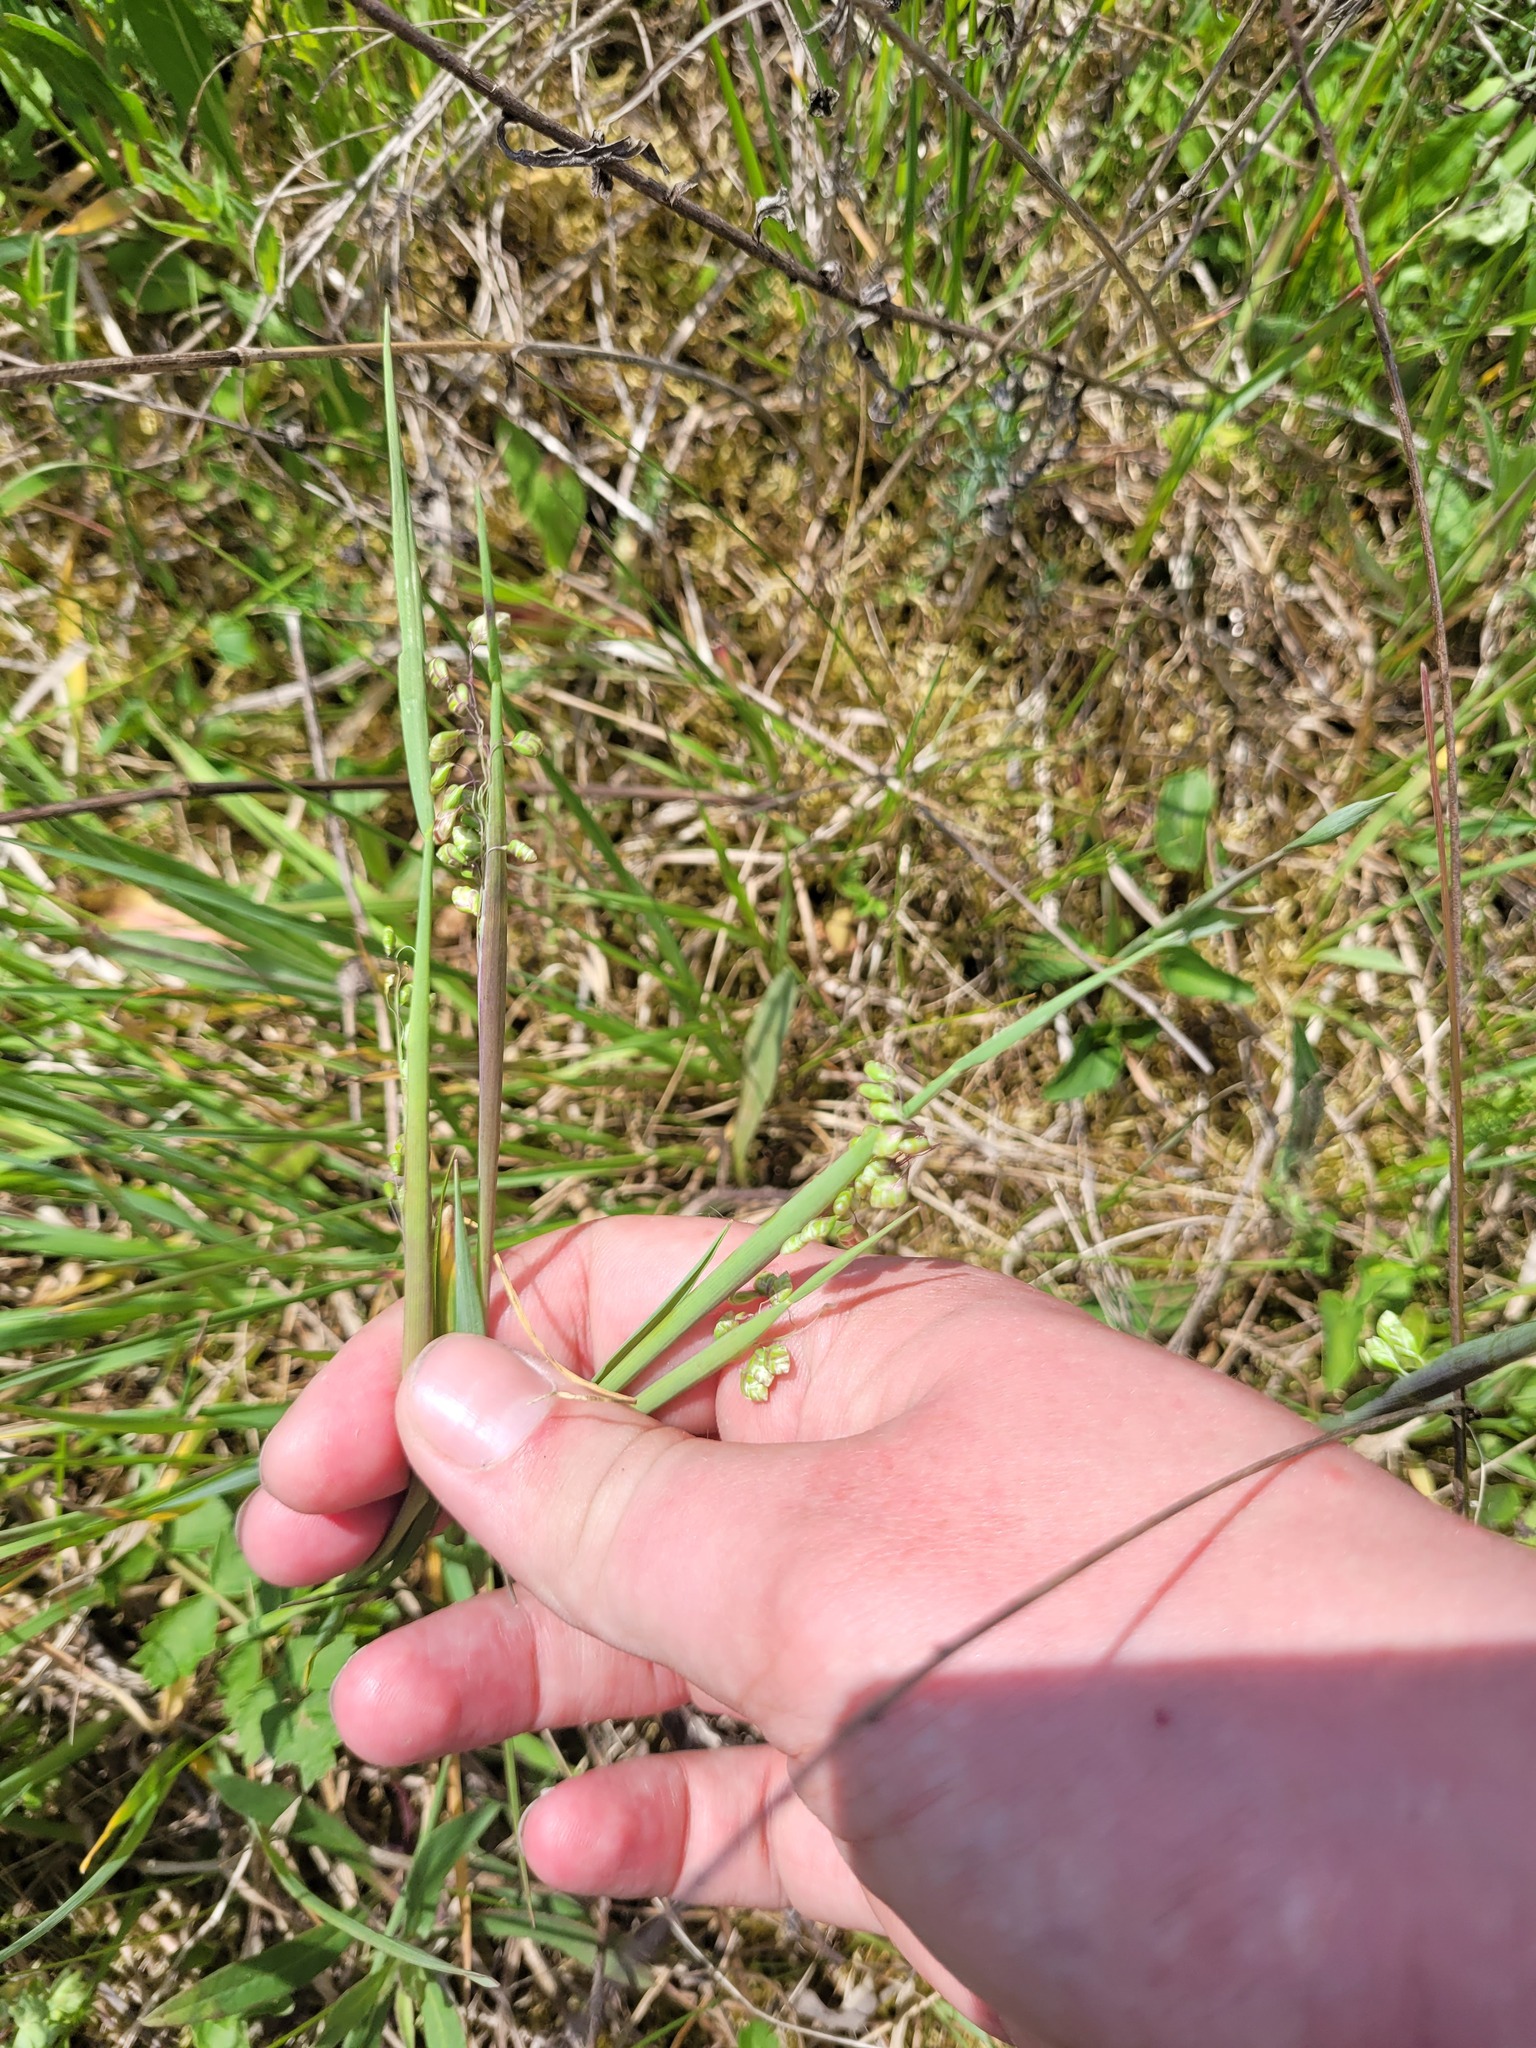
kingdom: Plantae
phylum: Tracheophyta
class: Liliopsida
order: Poales
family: Poaceae
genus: Briza
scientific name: Briza media
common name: Quaking grass
